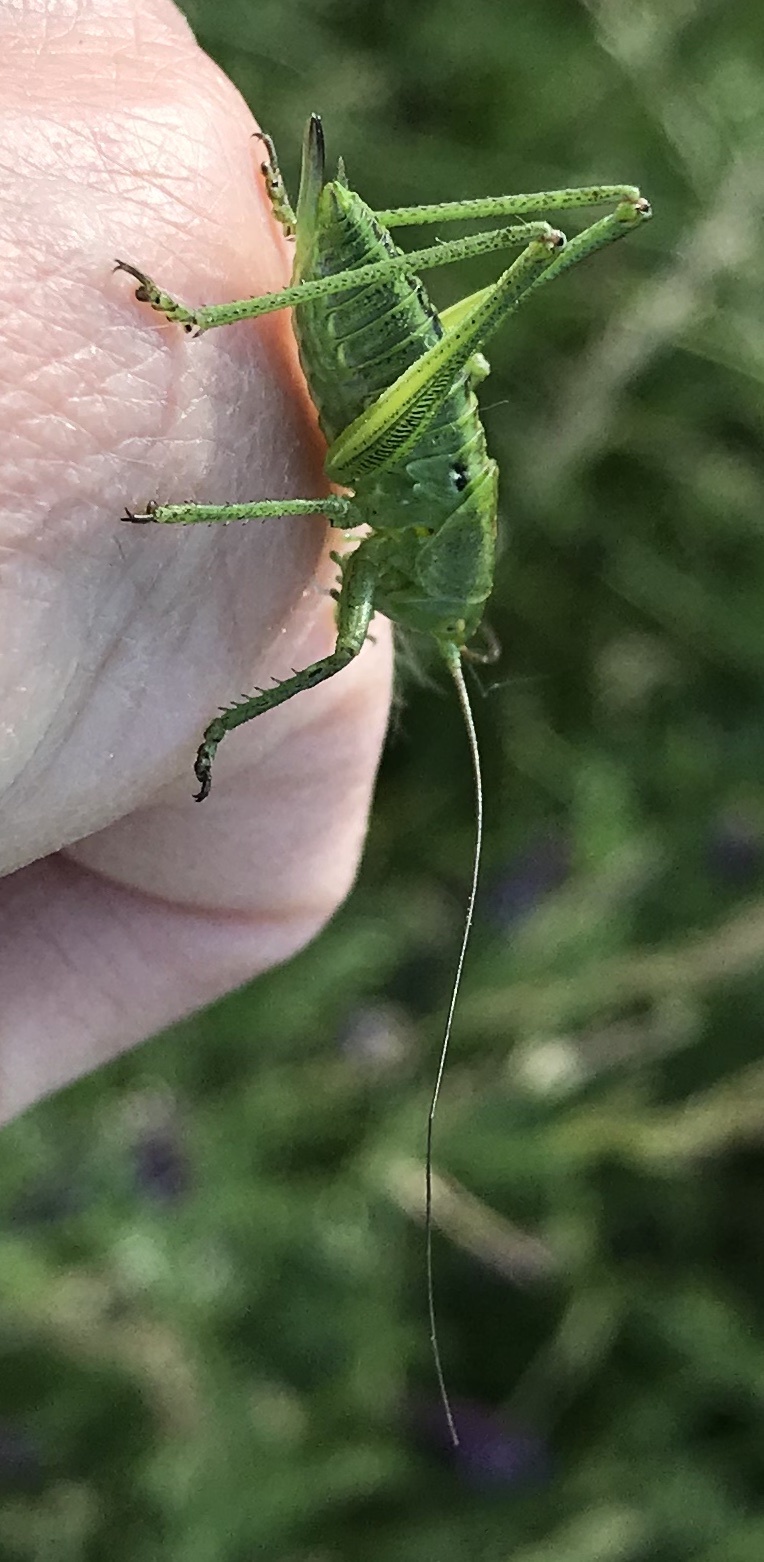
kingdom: Animalia
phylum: Arthropoda
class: Insecta
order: Orthoptera
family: Tettigoniidae
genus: Tettigonia
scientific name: Tettigonia viridissima
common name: Great green bush-cricket
